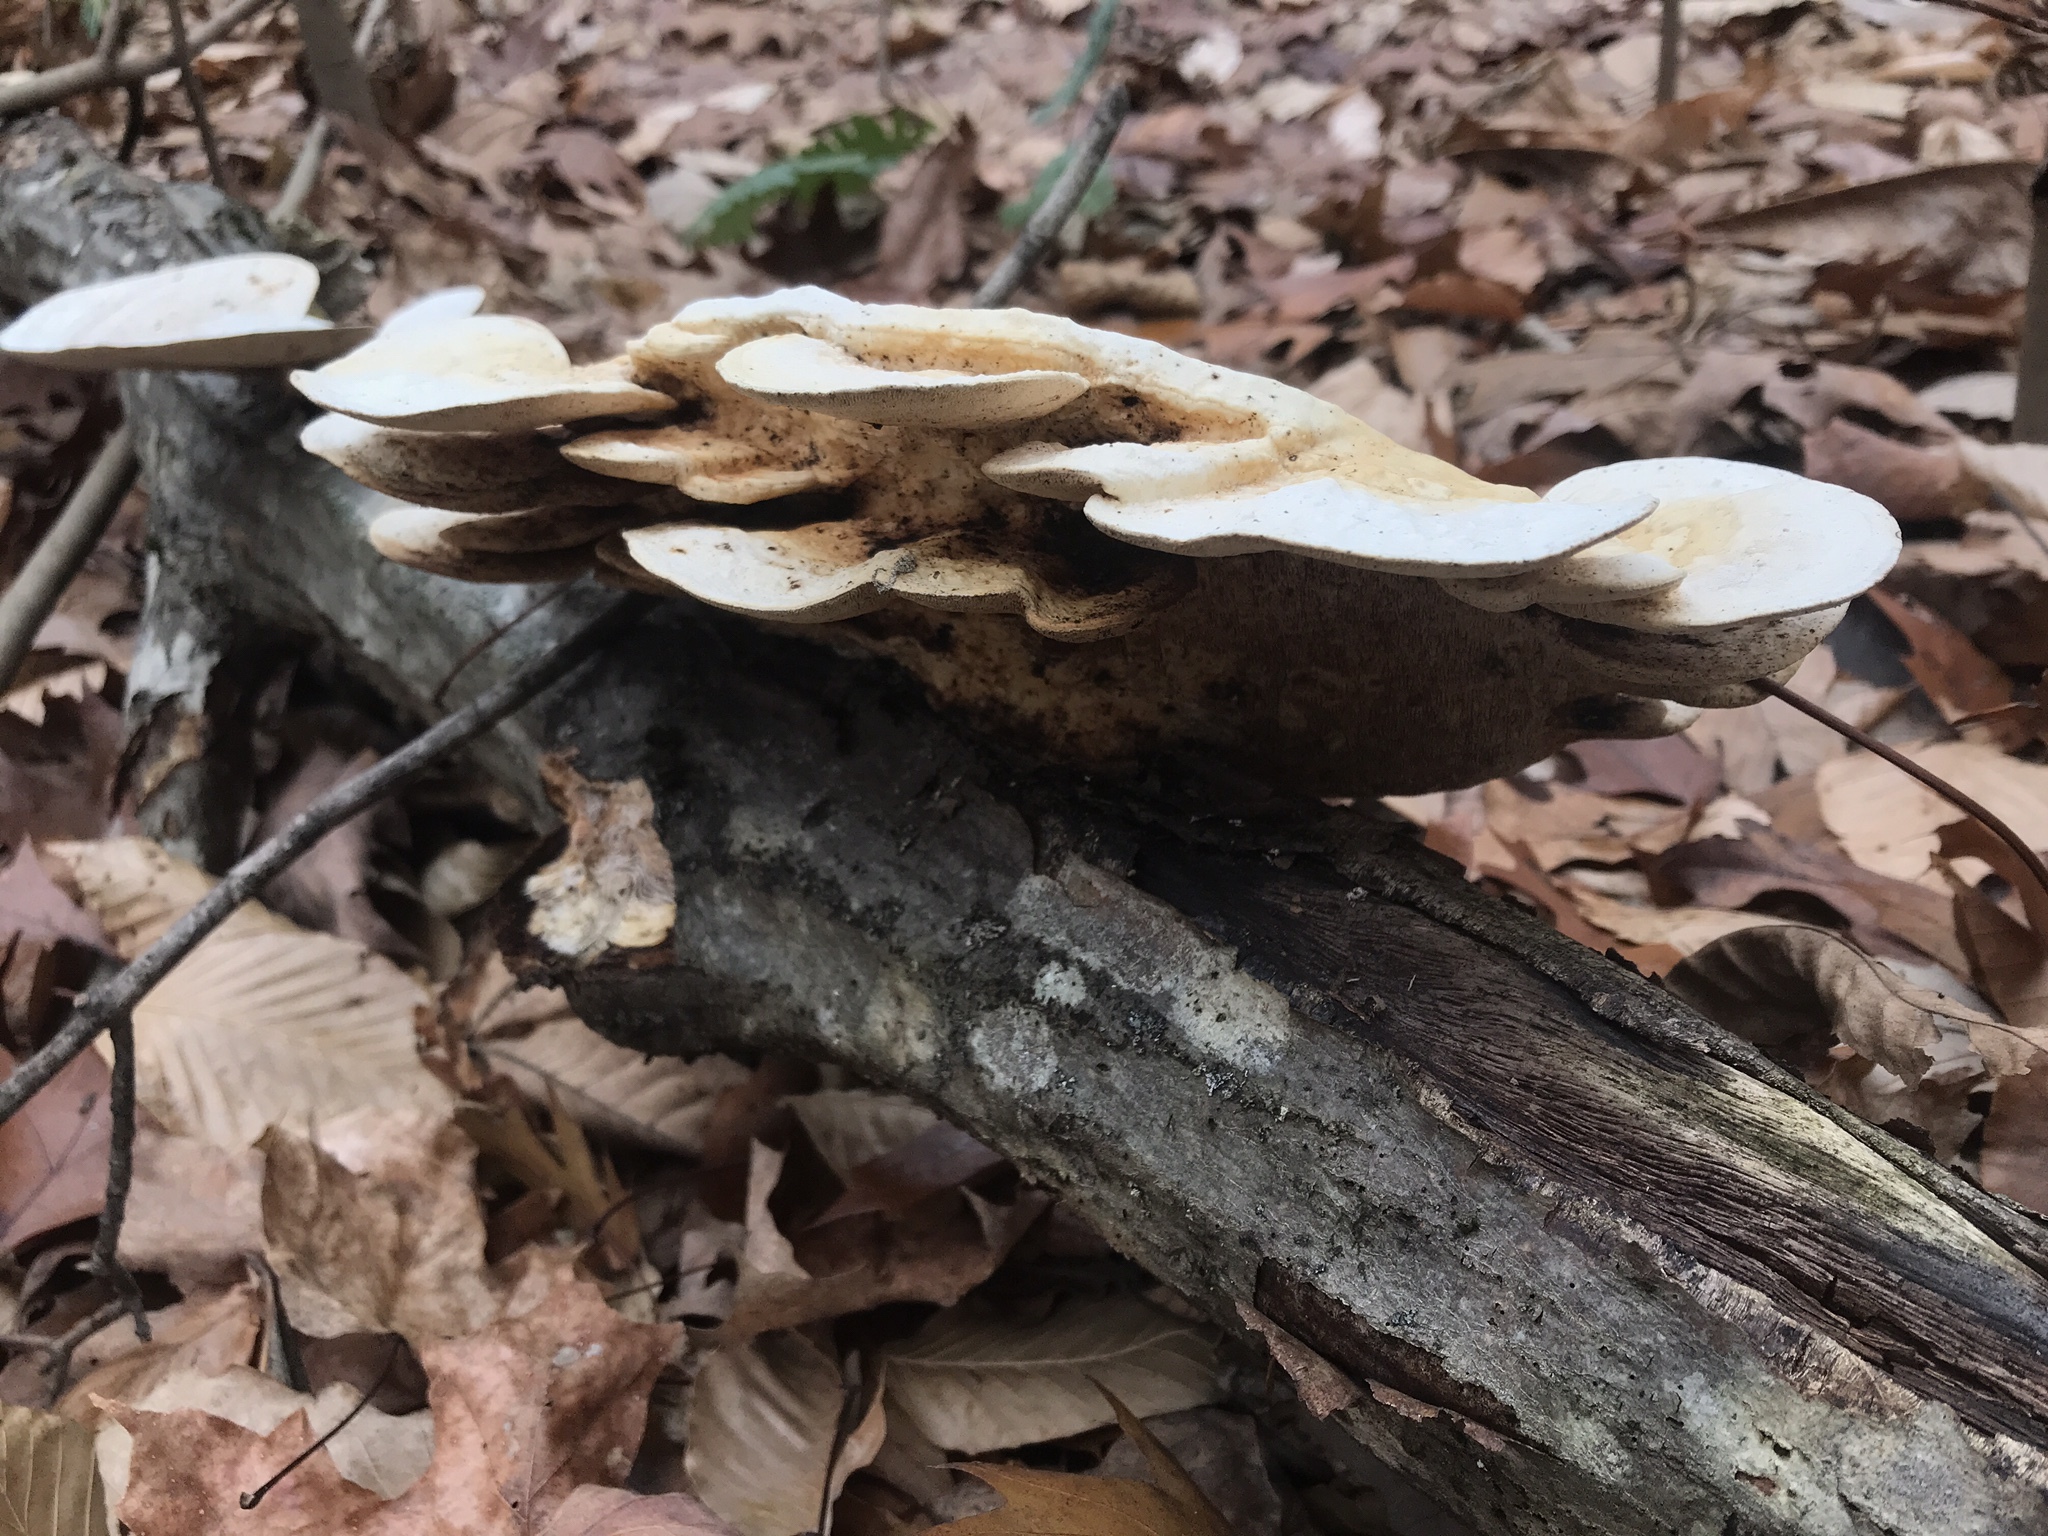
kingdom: Fungi
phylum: Basidiomycota
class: Agaricomycetes
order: Polyporales
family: Polyporaceae
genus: Trametes
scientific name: Trametes
